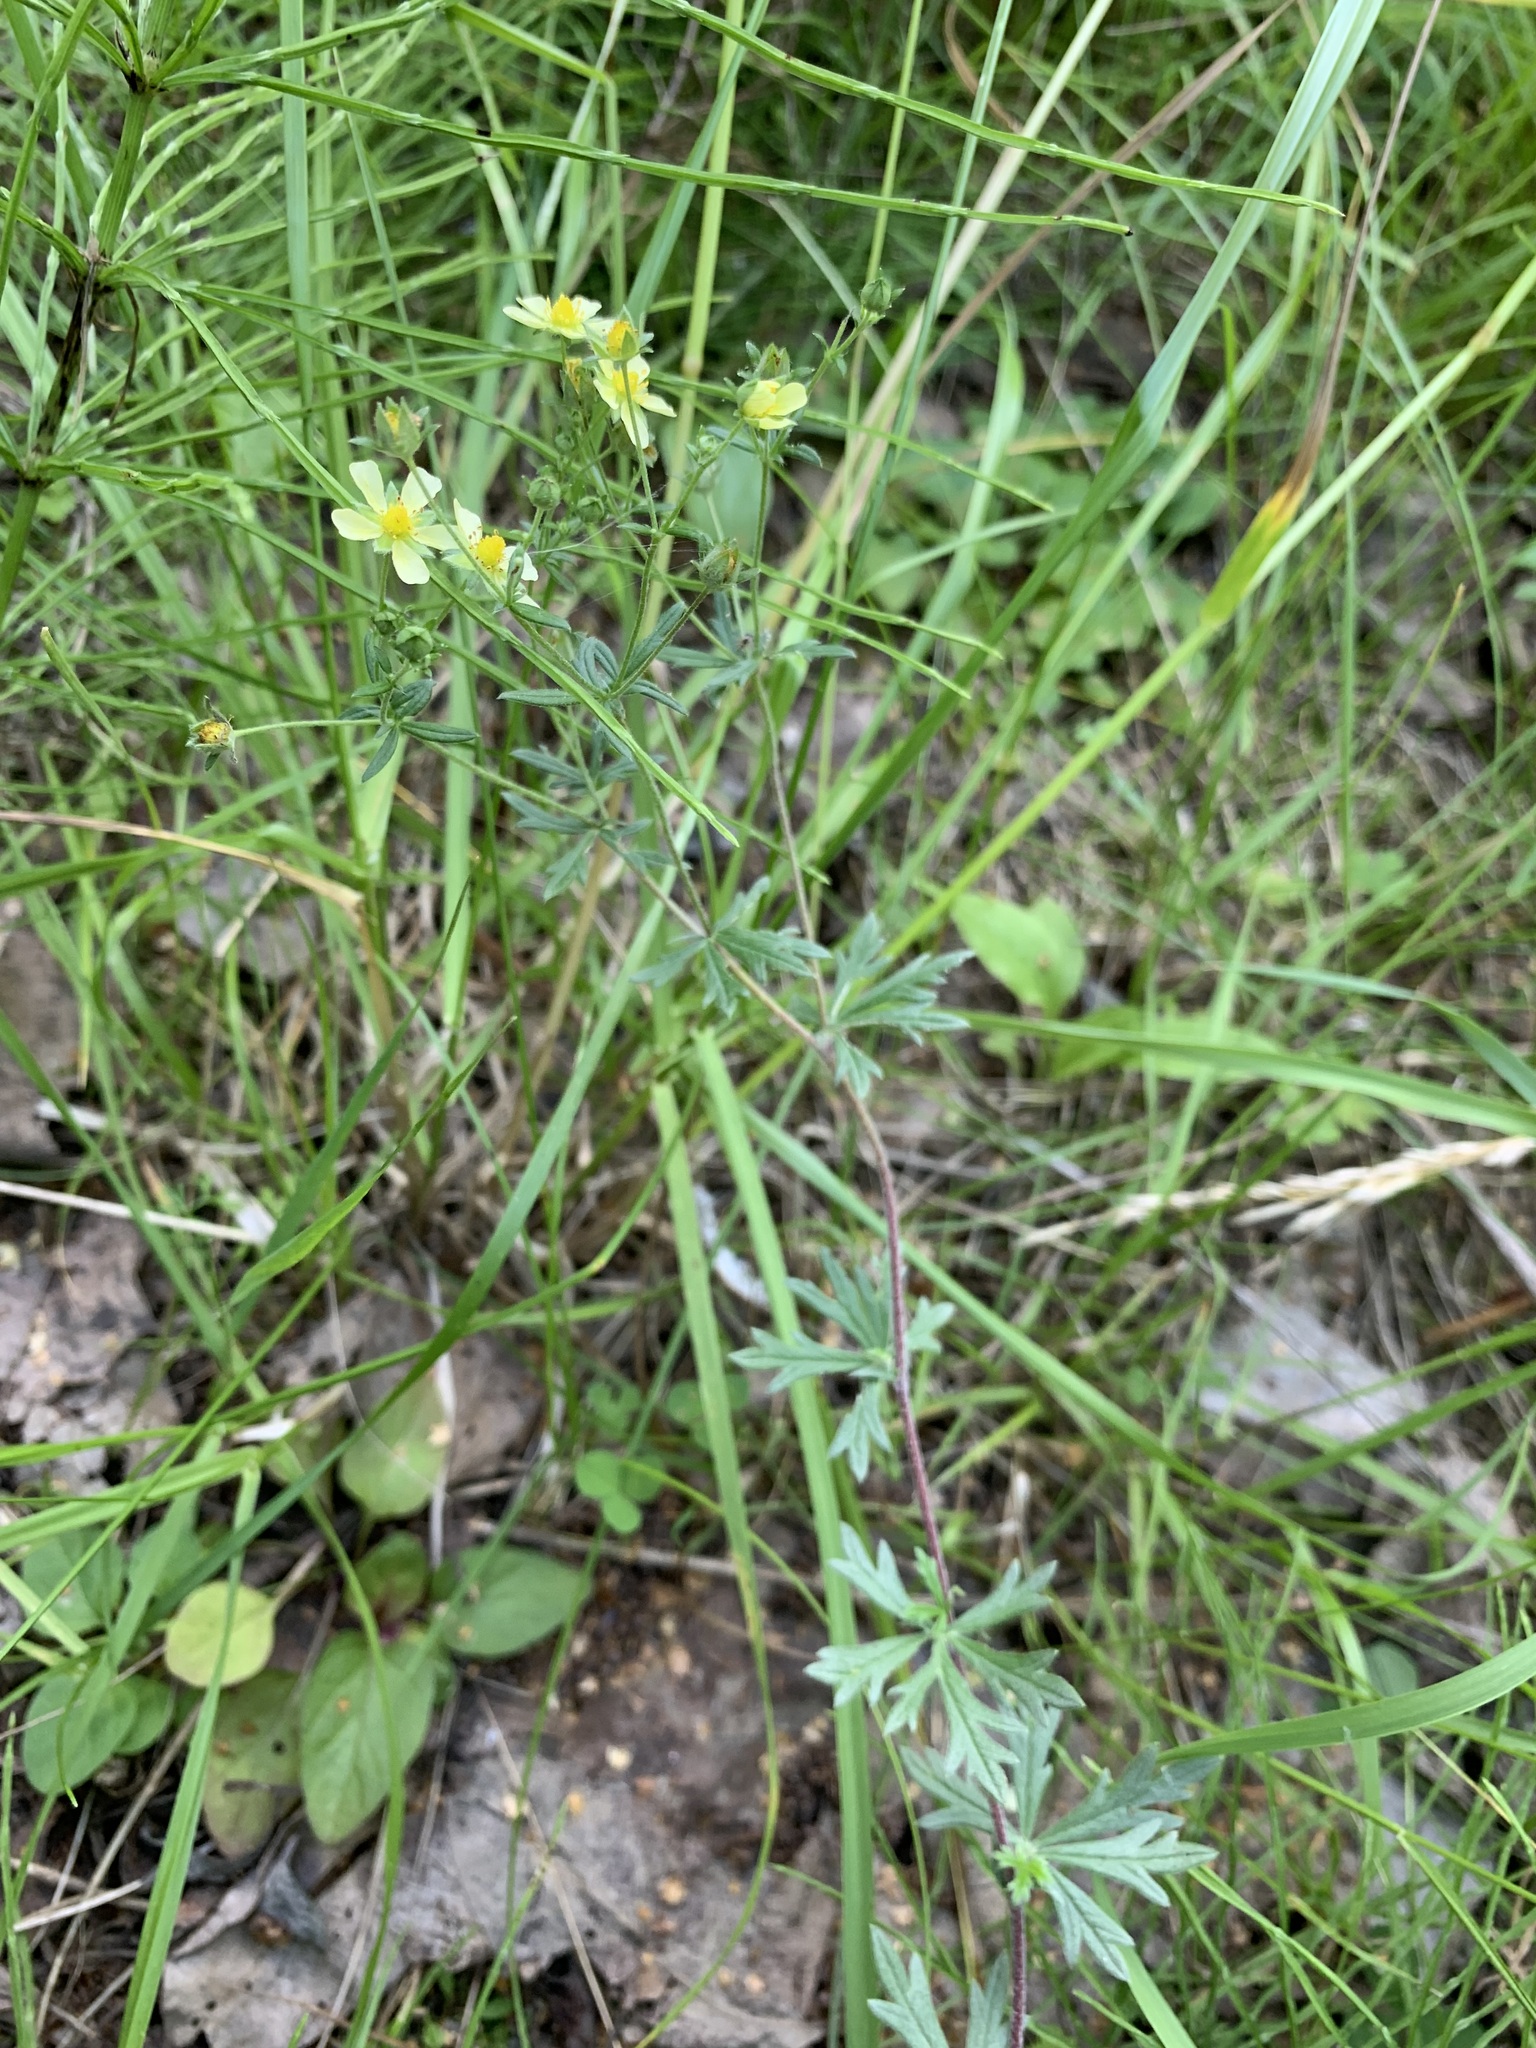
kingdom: Plantae
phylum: Tracheophyta
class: Magnoliopsida
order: Rosales
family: Rosaceae
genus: Potentilla
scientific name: Potentilla argentea
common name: Hoary cinquefoil
